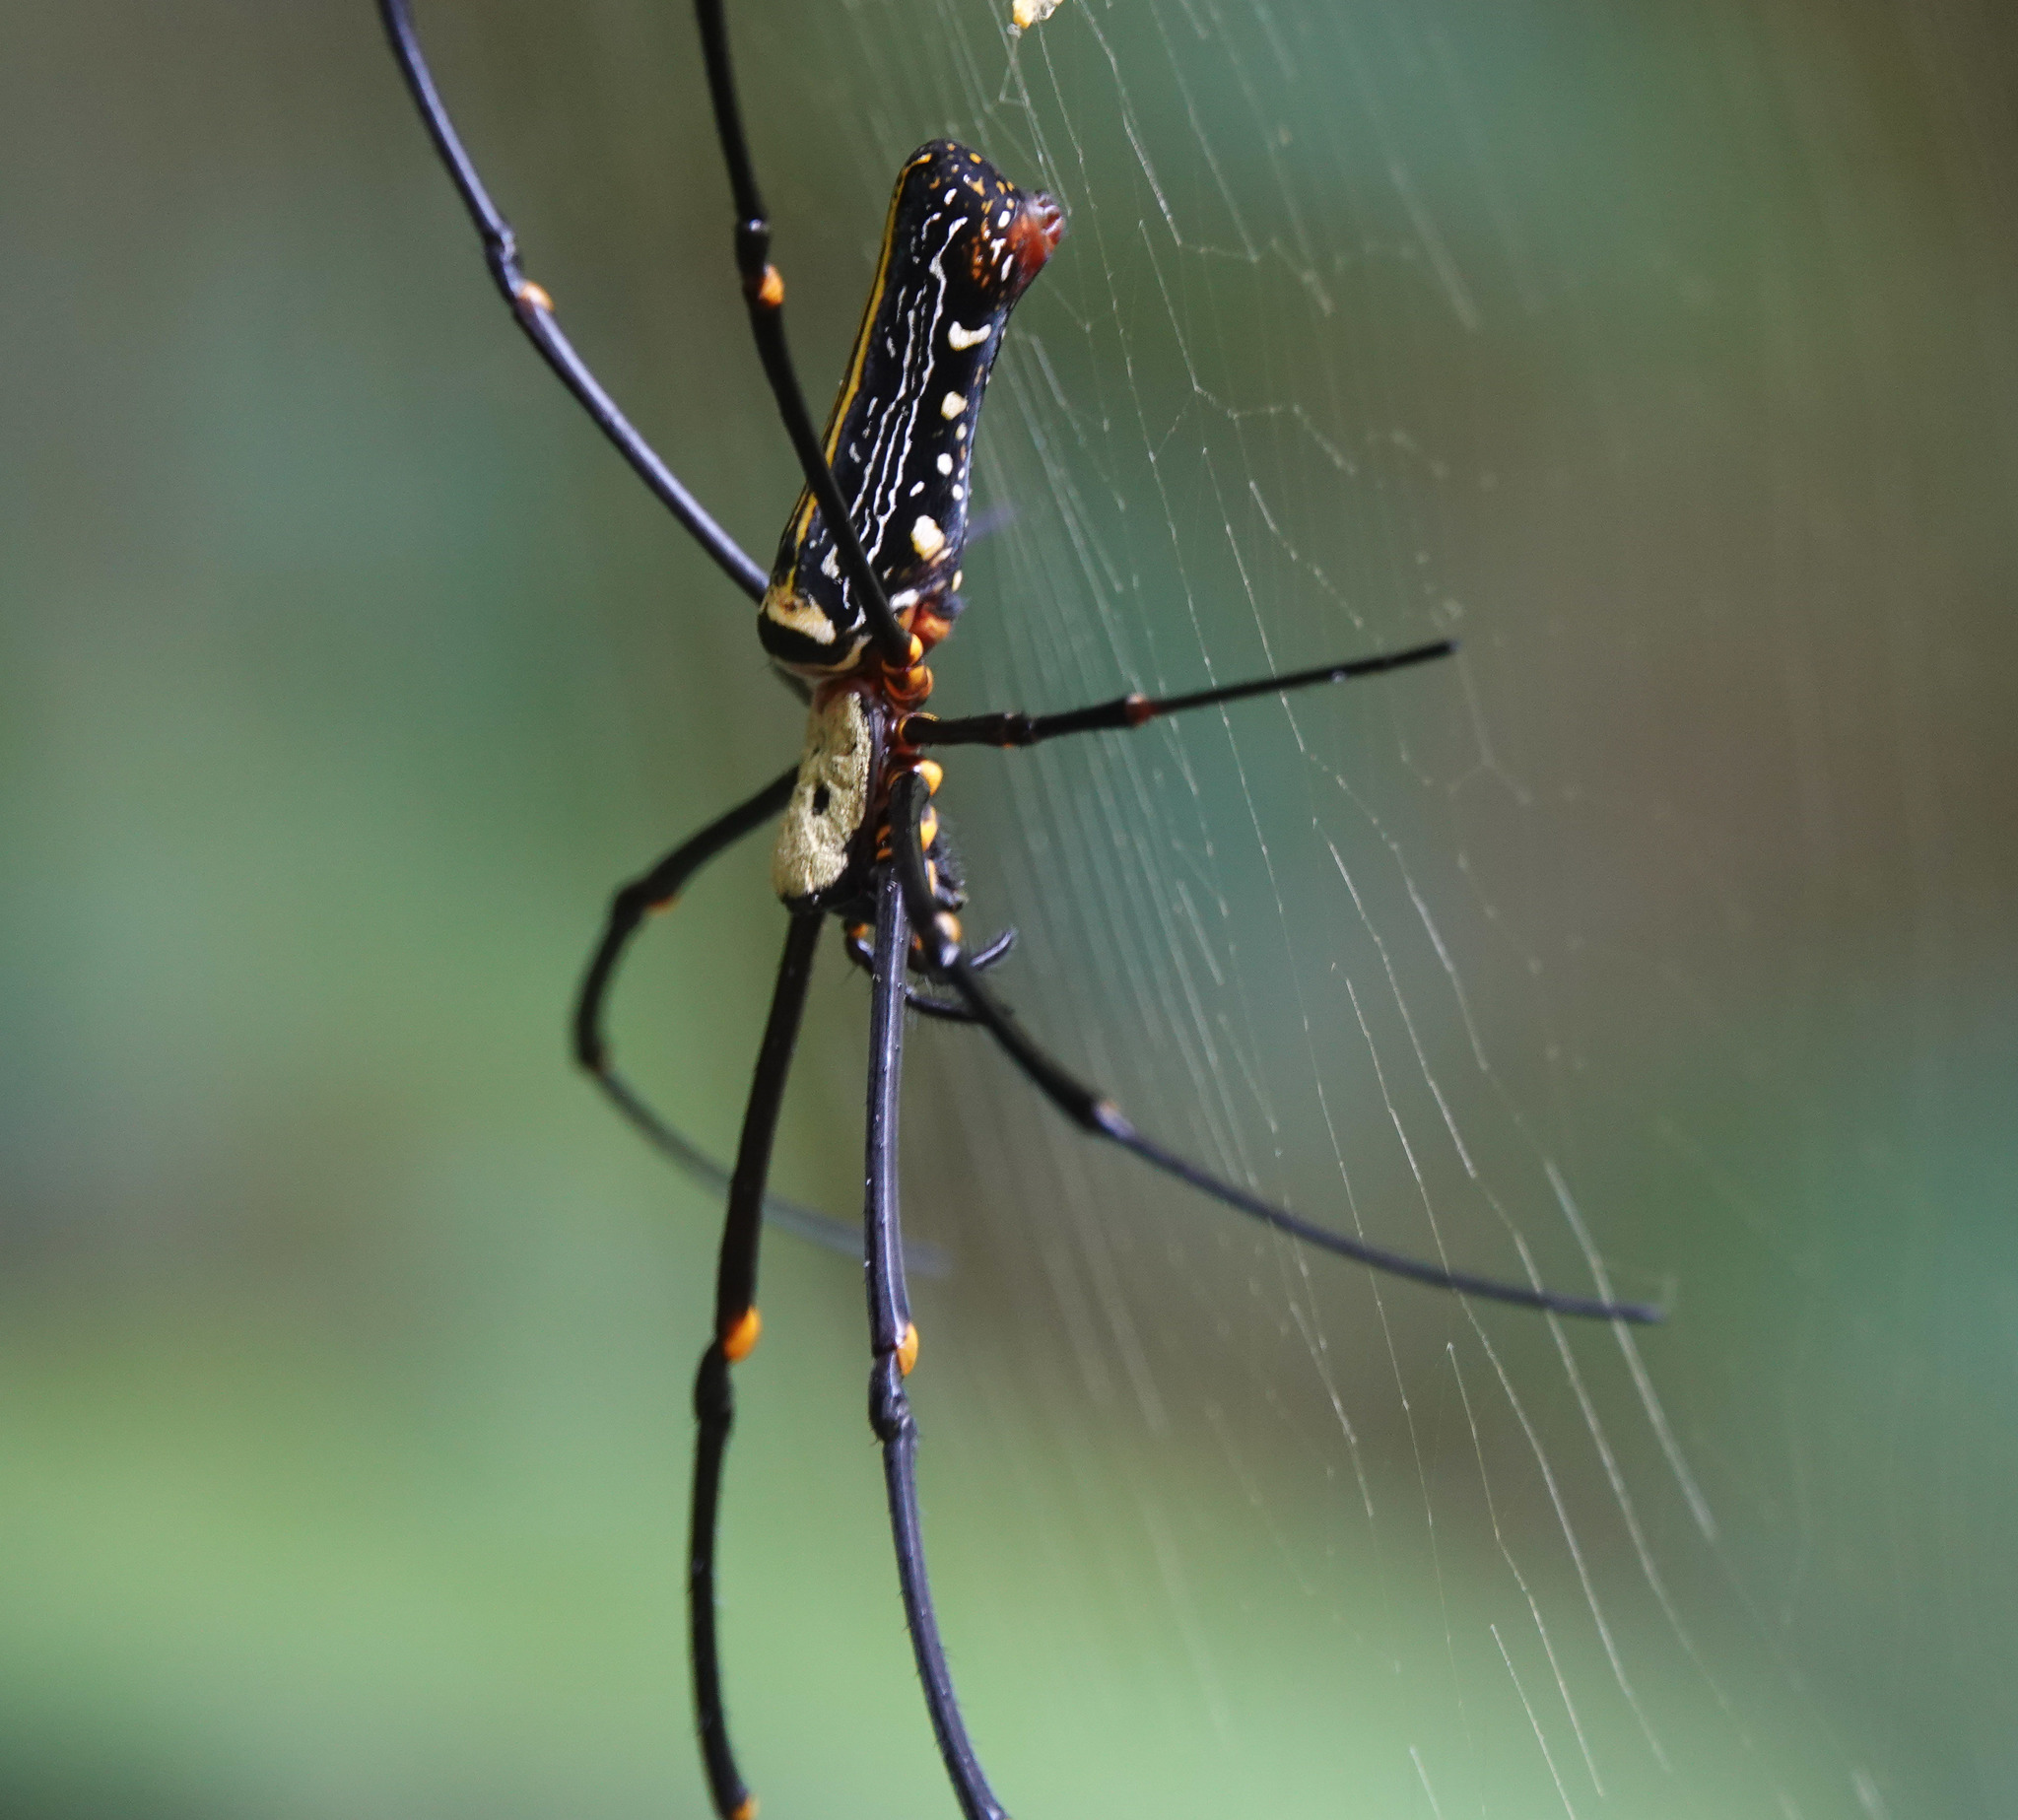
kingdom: Animalia
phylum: Arthropoda
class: Arachnida
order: Araneae
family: Araneidae
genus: Nephila
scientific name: Nephila pilipes
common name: Giant golden orb weaver
